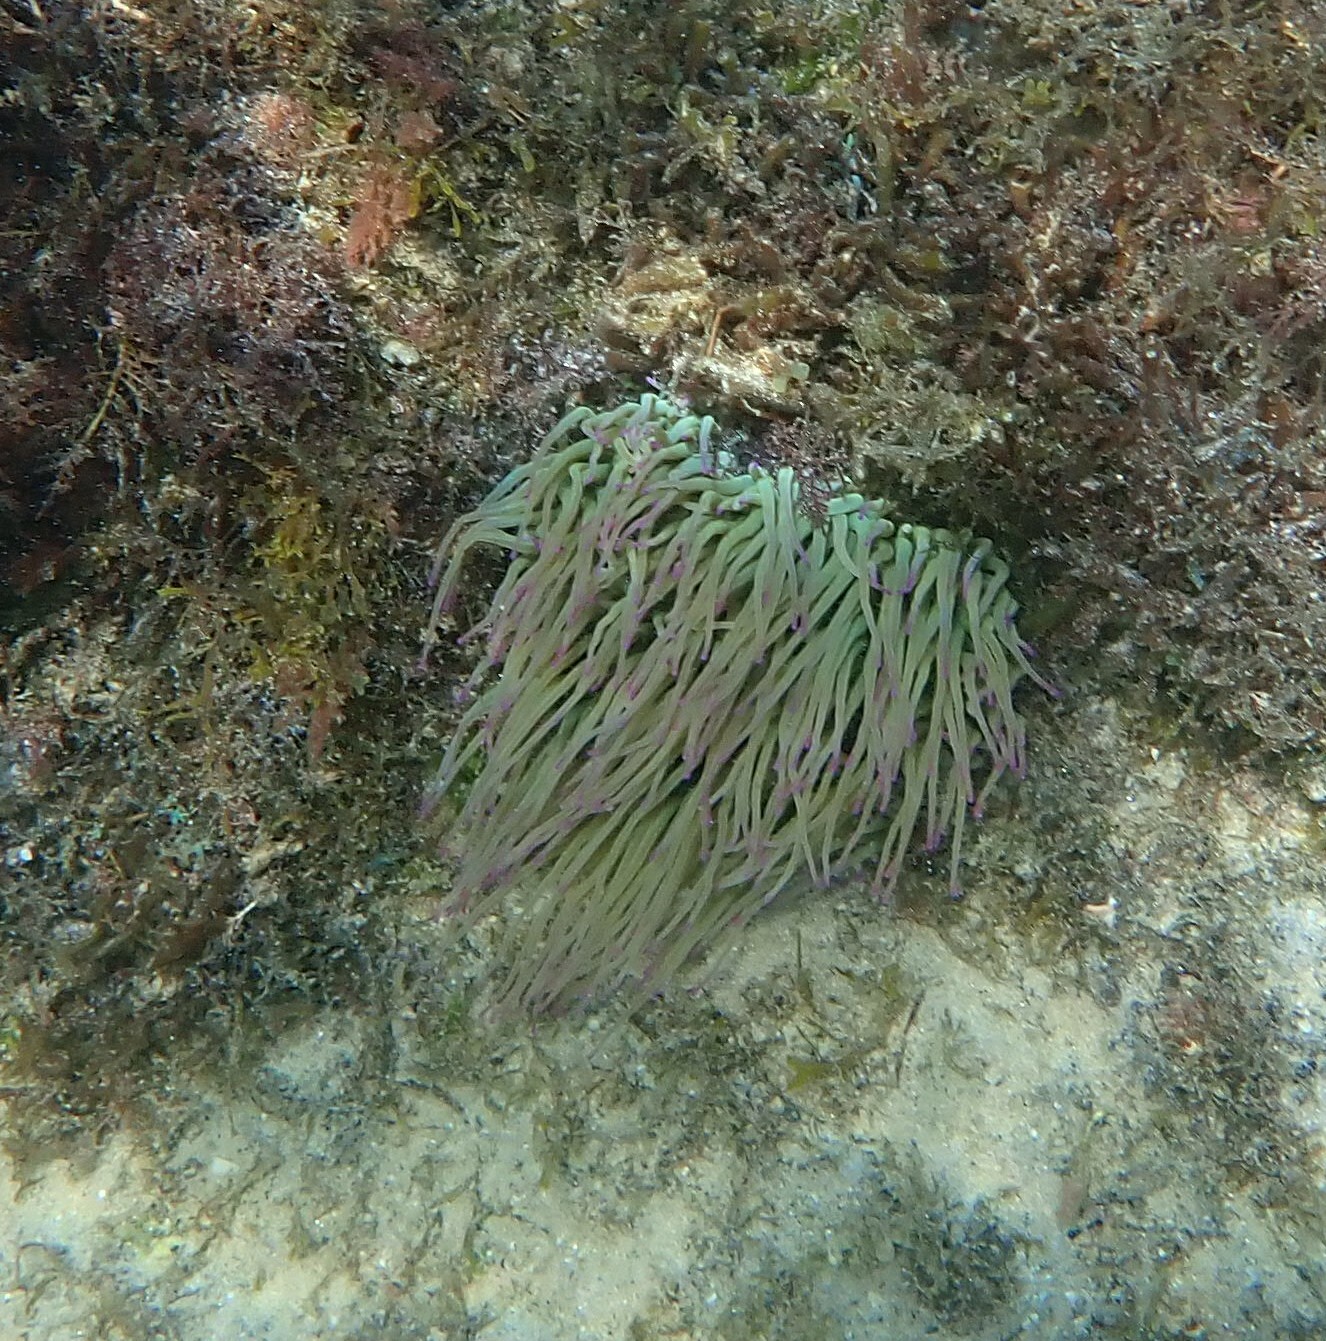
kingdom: Animalia
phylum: Cnidaria
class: Anthozoa
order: Actiniaria
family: Actiniidae
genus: Anemonia
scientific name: Anemonia viridis
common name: Snakelocks anemone
